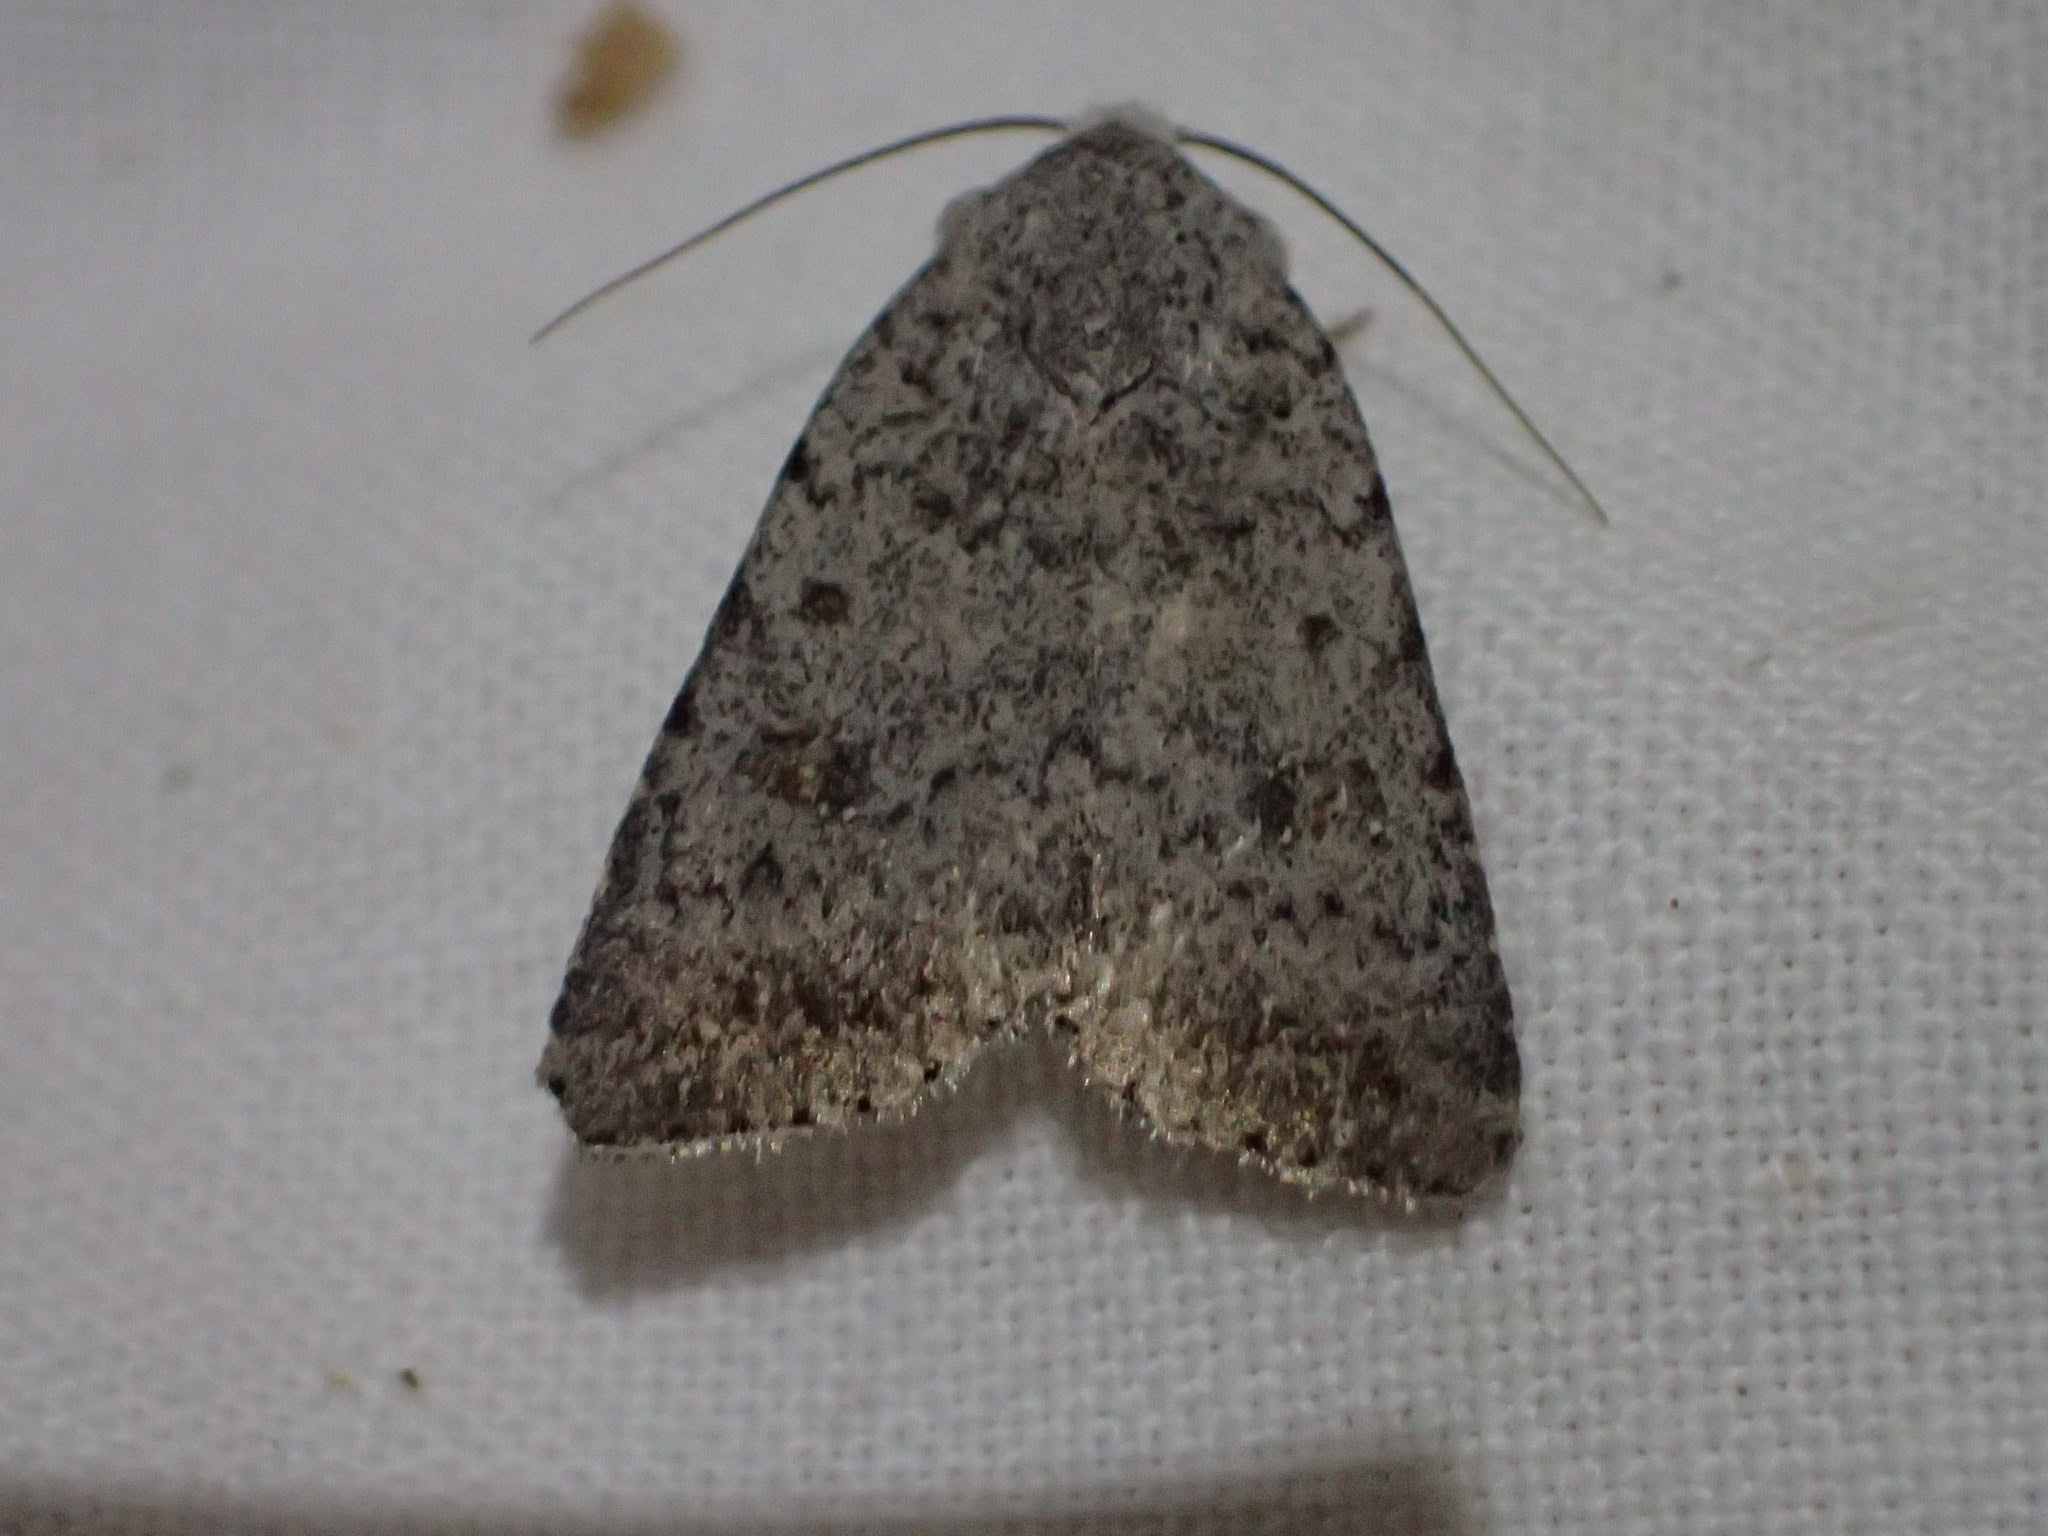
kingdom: Animalia
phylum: Arthropoda
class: Insecta
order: Lepidoptera
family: Noctuidae
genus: Caradrina
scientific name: Caradrina multifera
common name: Speckled rustic
